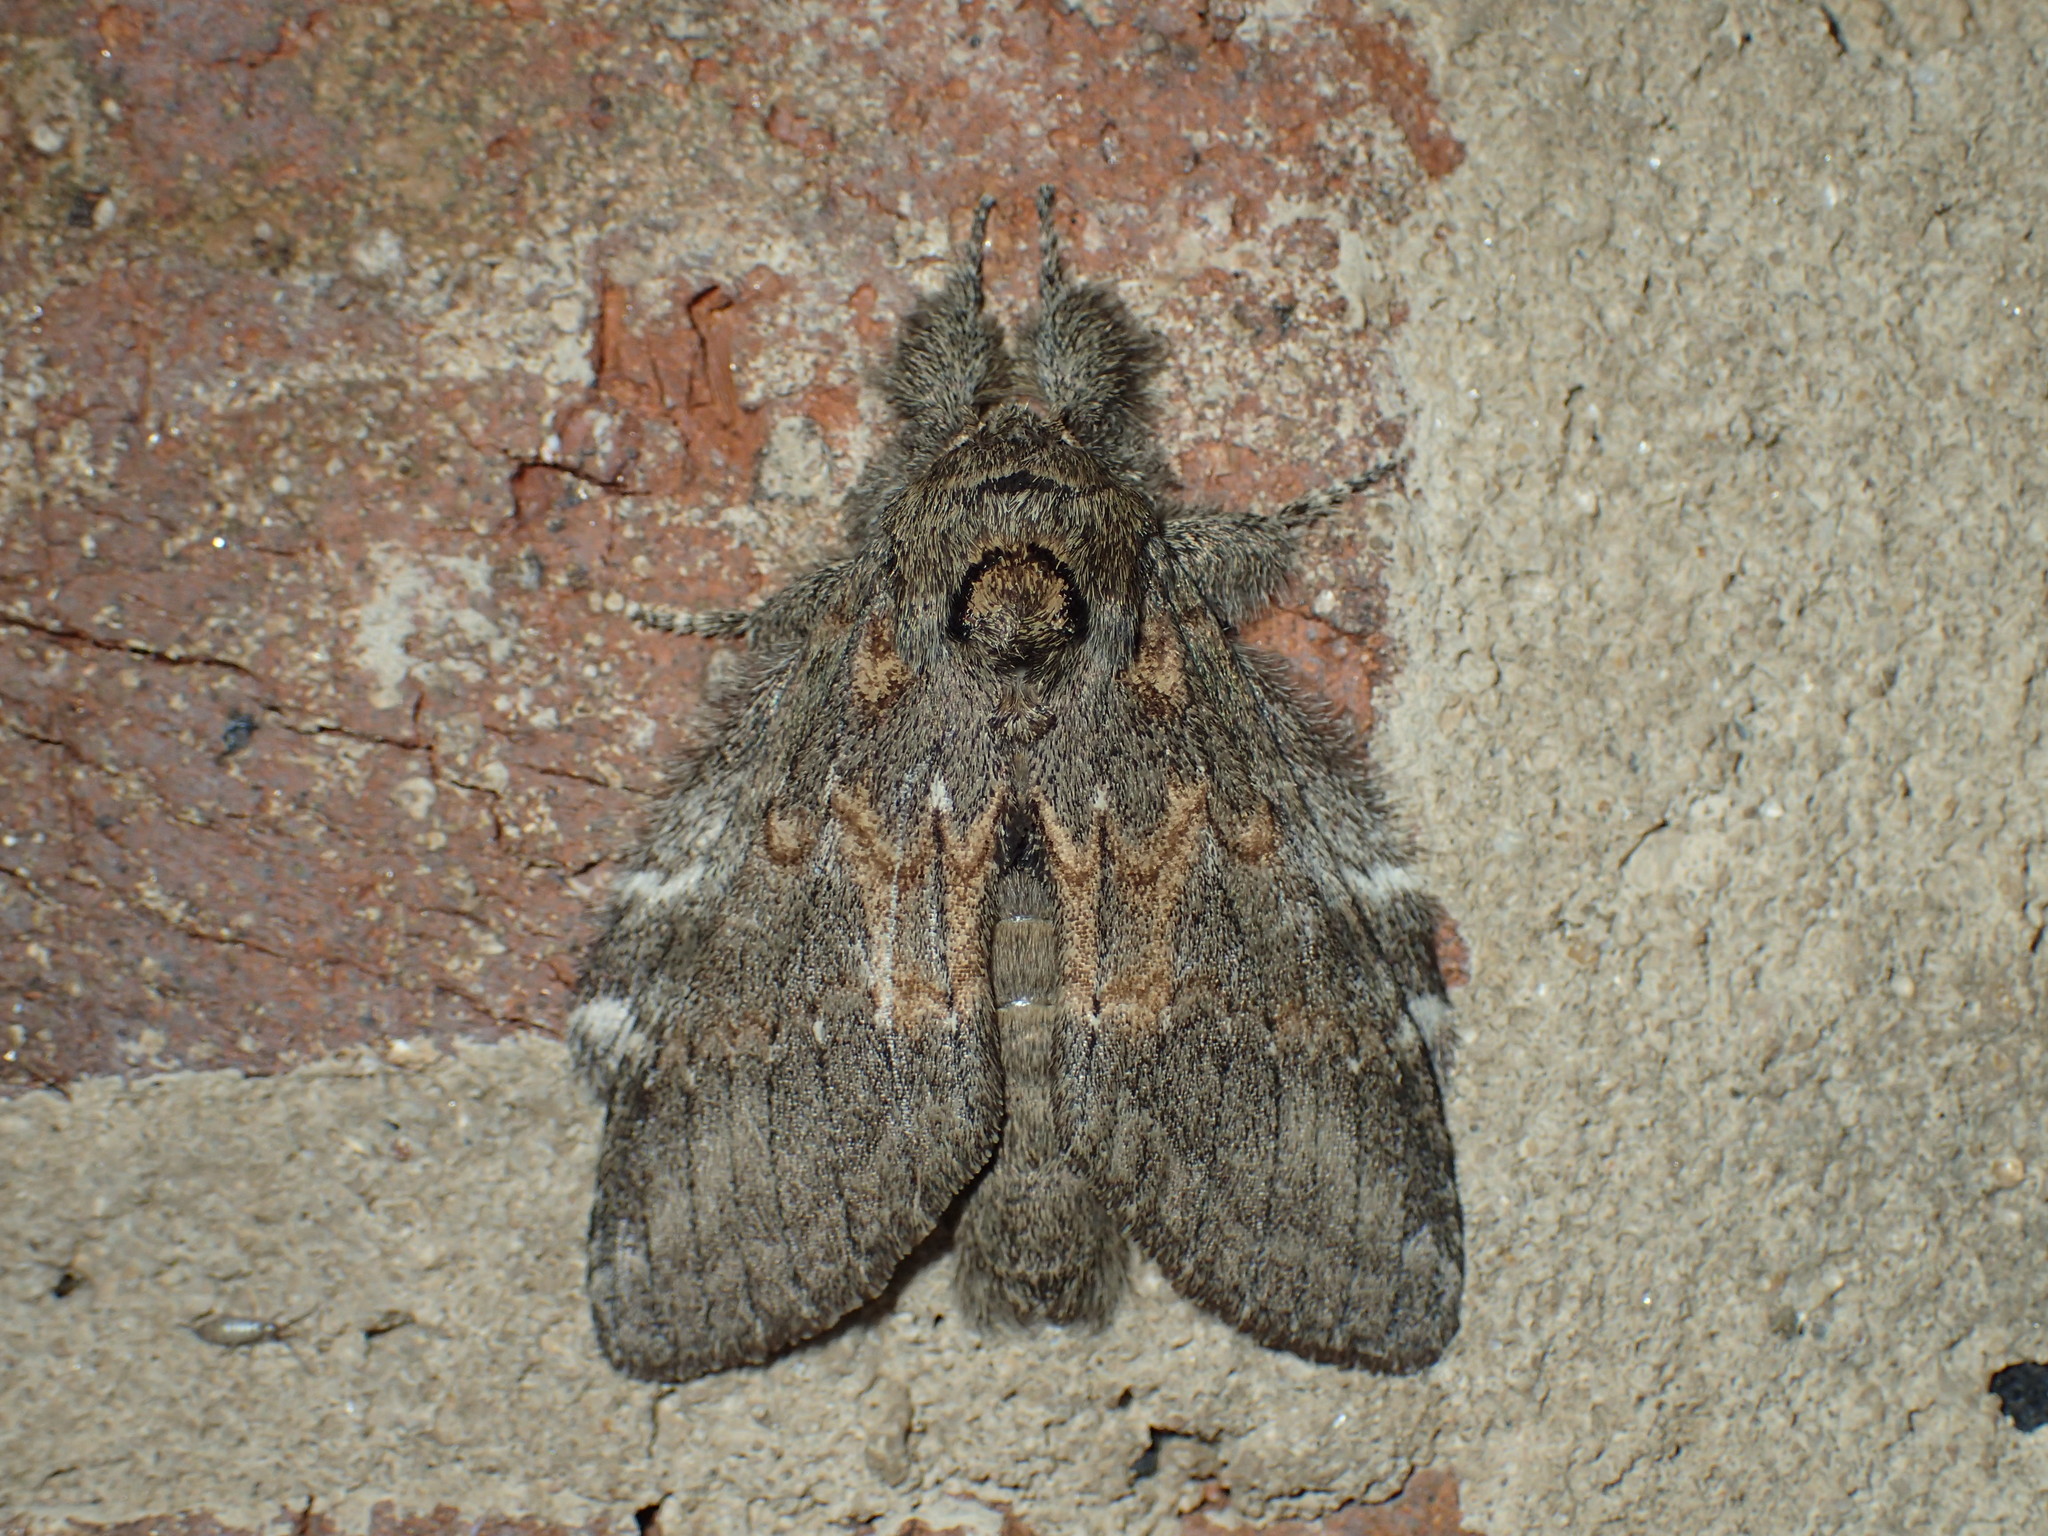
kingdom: Animalia
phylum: Arthropoda
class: Insecta
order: Lepidoptera
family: Notodontidae
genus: Disphragis
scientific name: Disphragis Cecrita biundata
